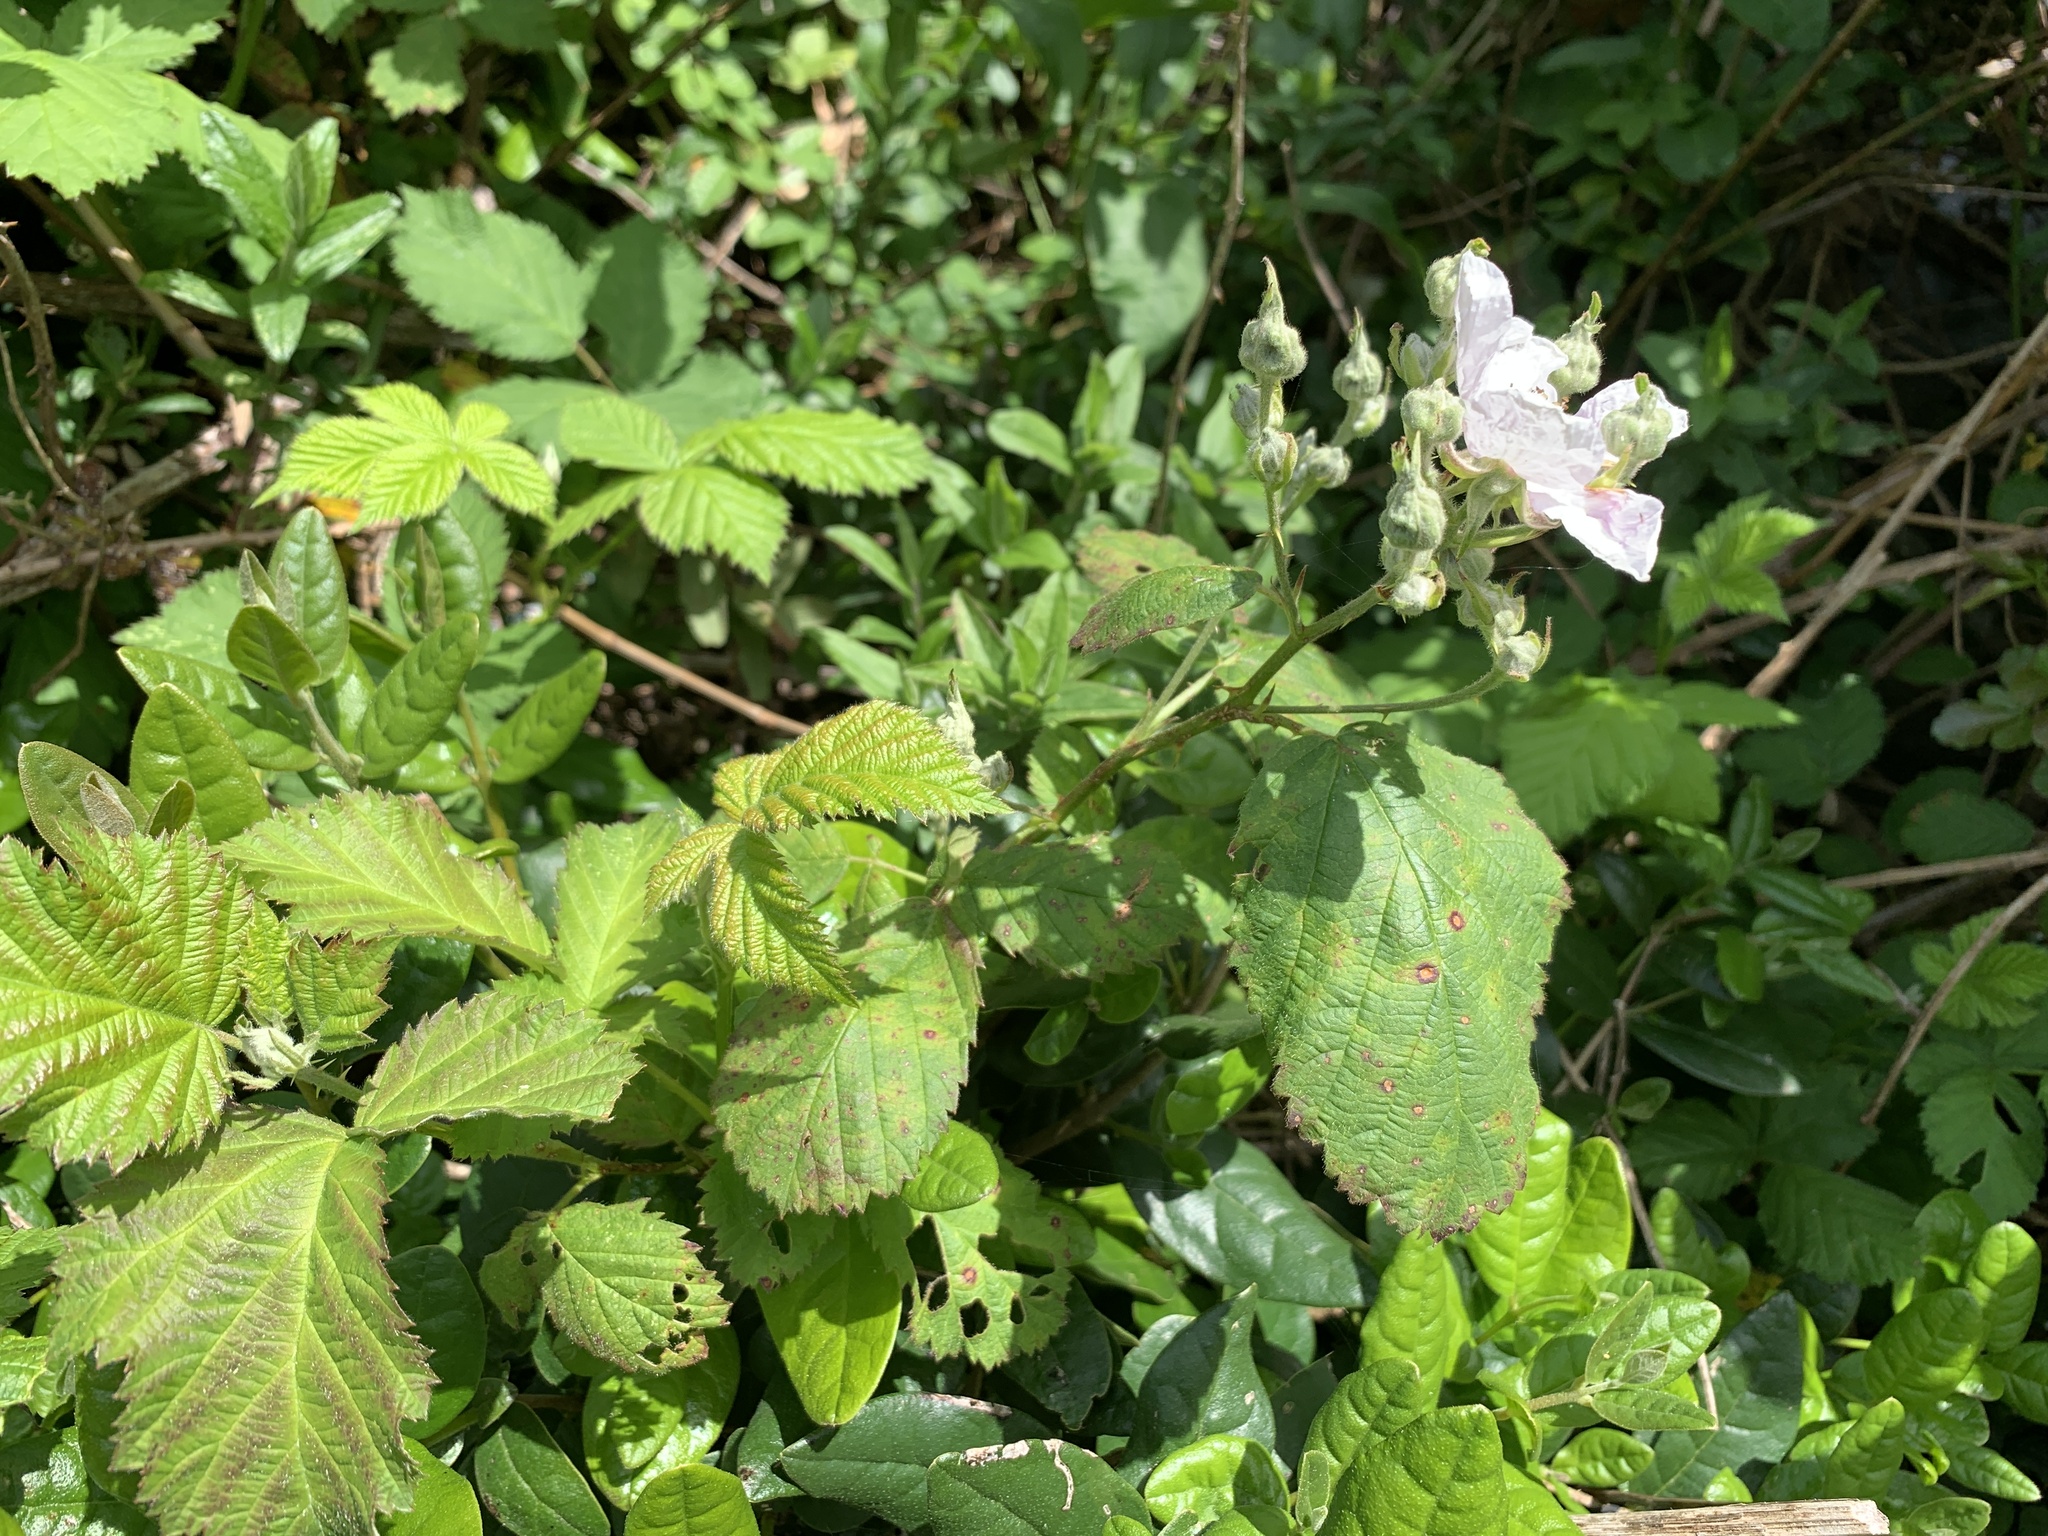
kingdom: Plantae
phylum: Tracheophyta
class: Magnoliopsida
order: Rosales
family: Rosaceae
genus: Rubus
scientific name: Rubus ulmifolius
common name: Elmleaf blackberry
